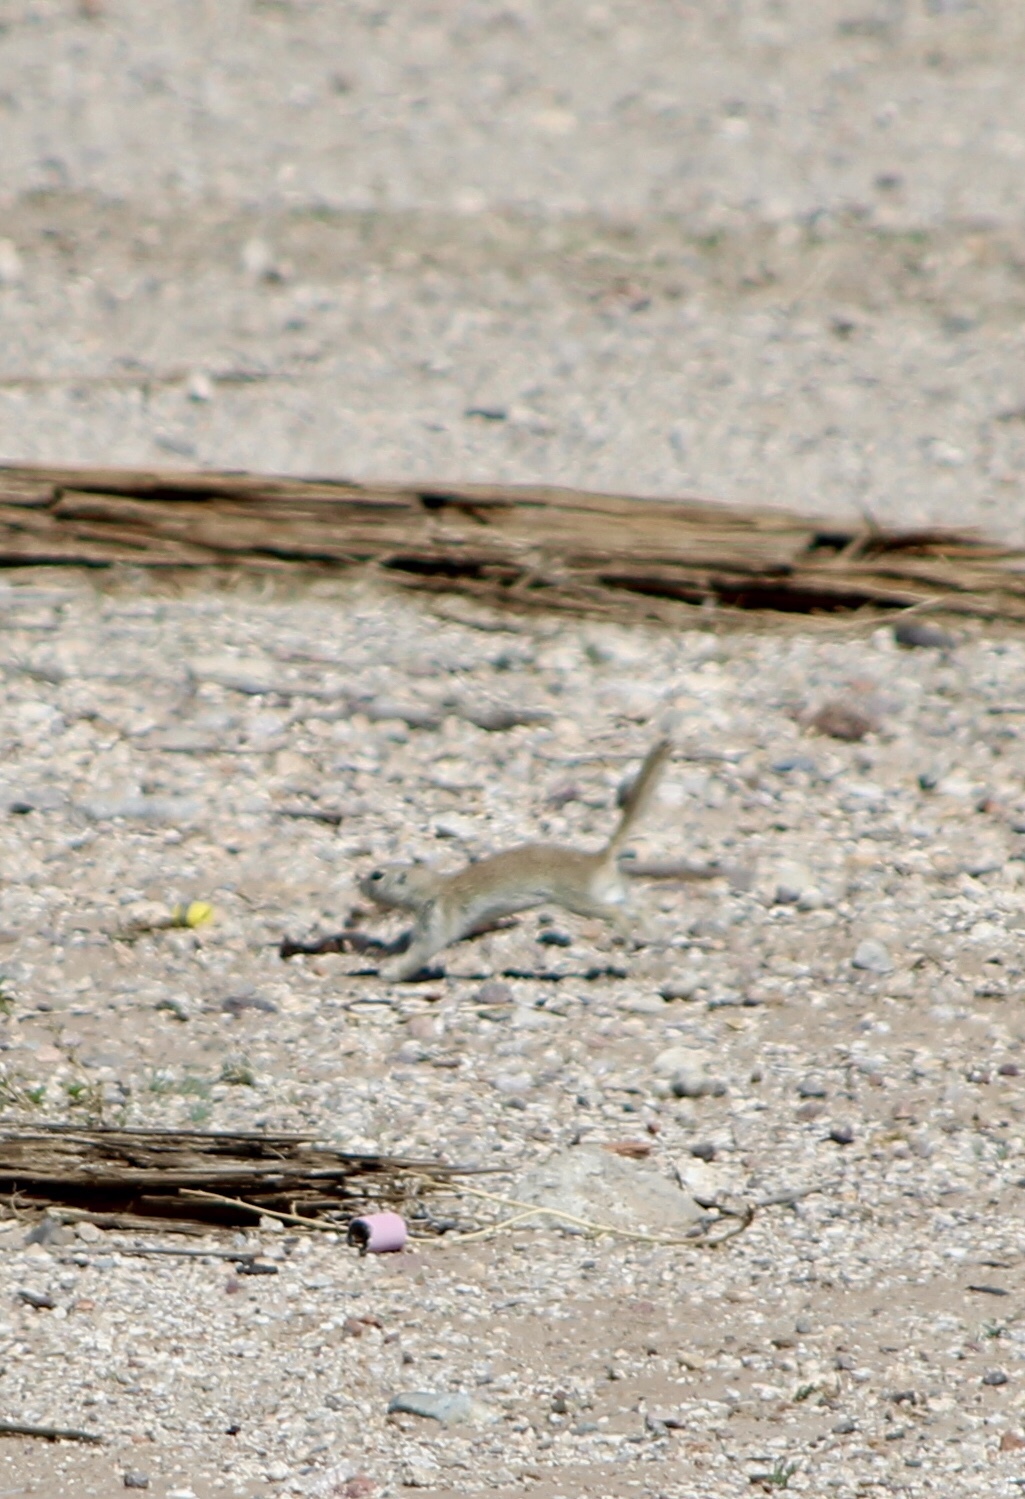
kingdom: Animalia
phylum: Chordata
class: Mammalia
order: Rodentia
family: Sciuridae
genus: Xerospermophilus
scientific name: Xerospermophilus tereticaudus
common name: Round-tailed ground squirrel
